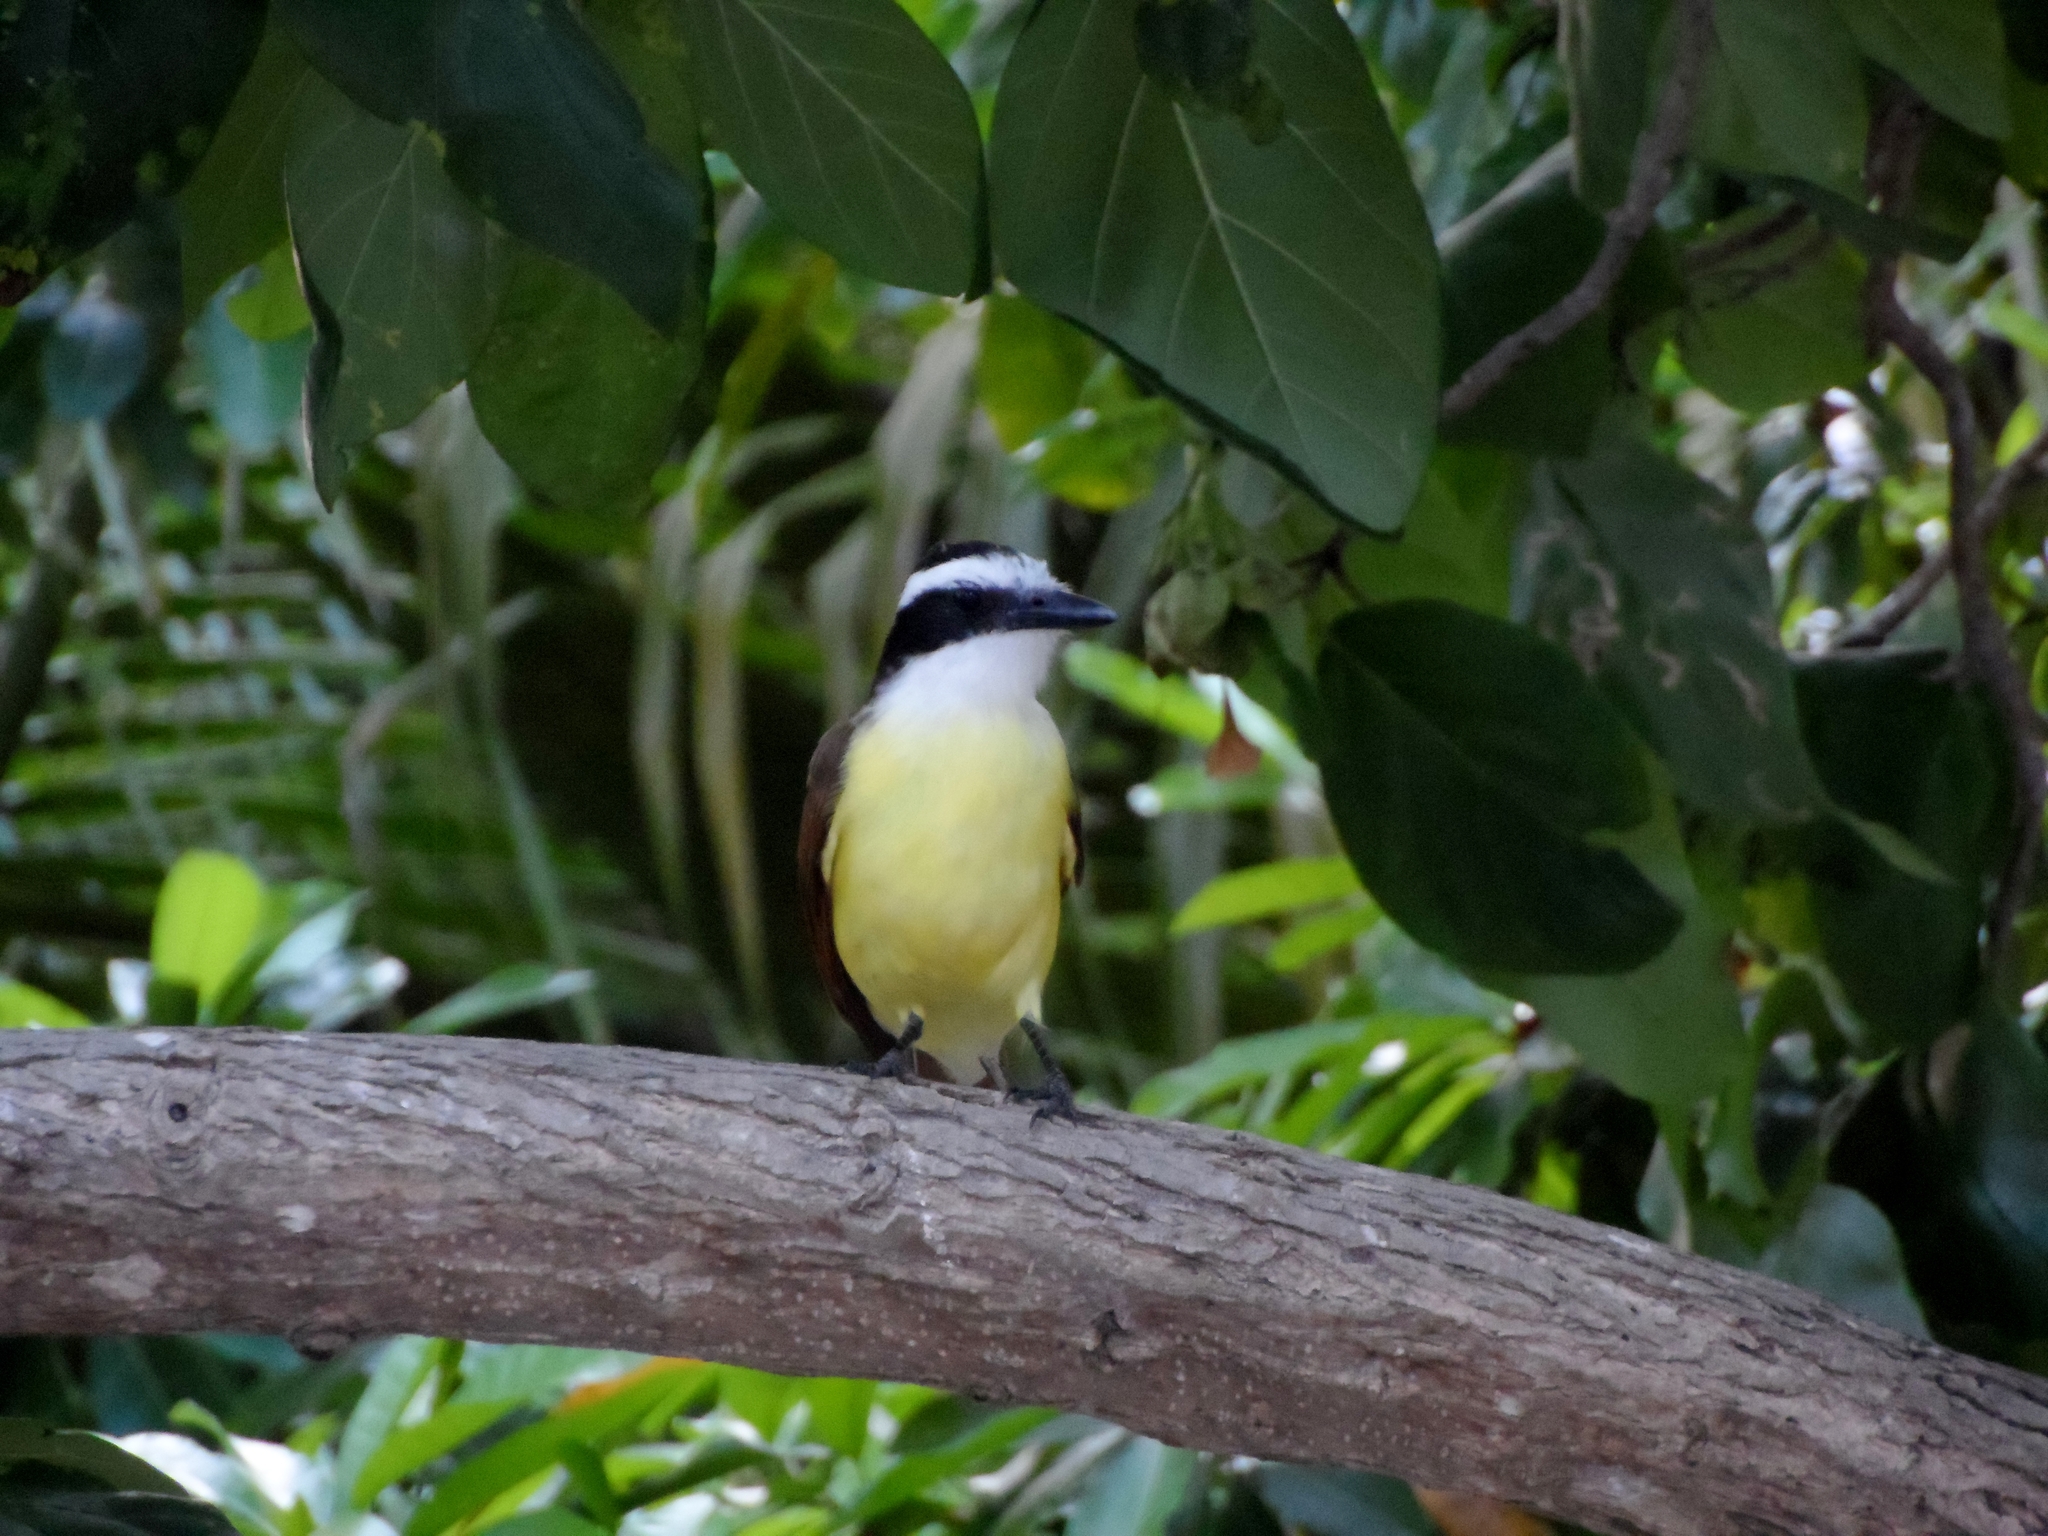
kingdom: Animalia
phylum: Chordata
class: Aves
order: Passeriformes
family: Tyrannidae
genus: Pitangus
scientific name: Pitangus sulphuratus
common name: Great kiskadee
